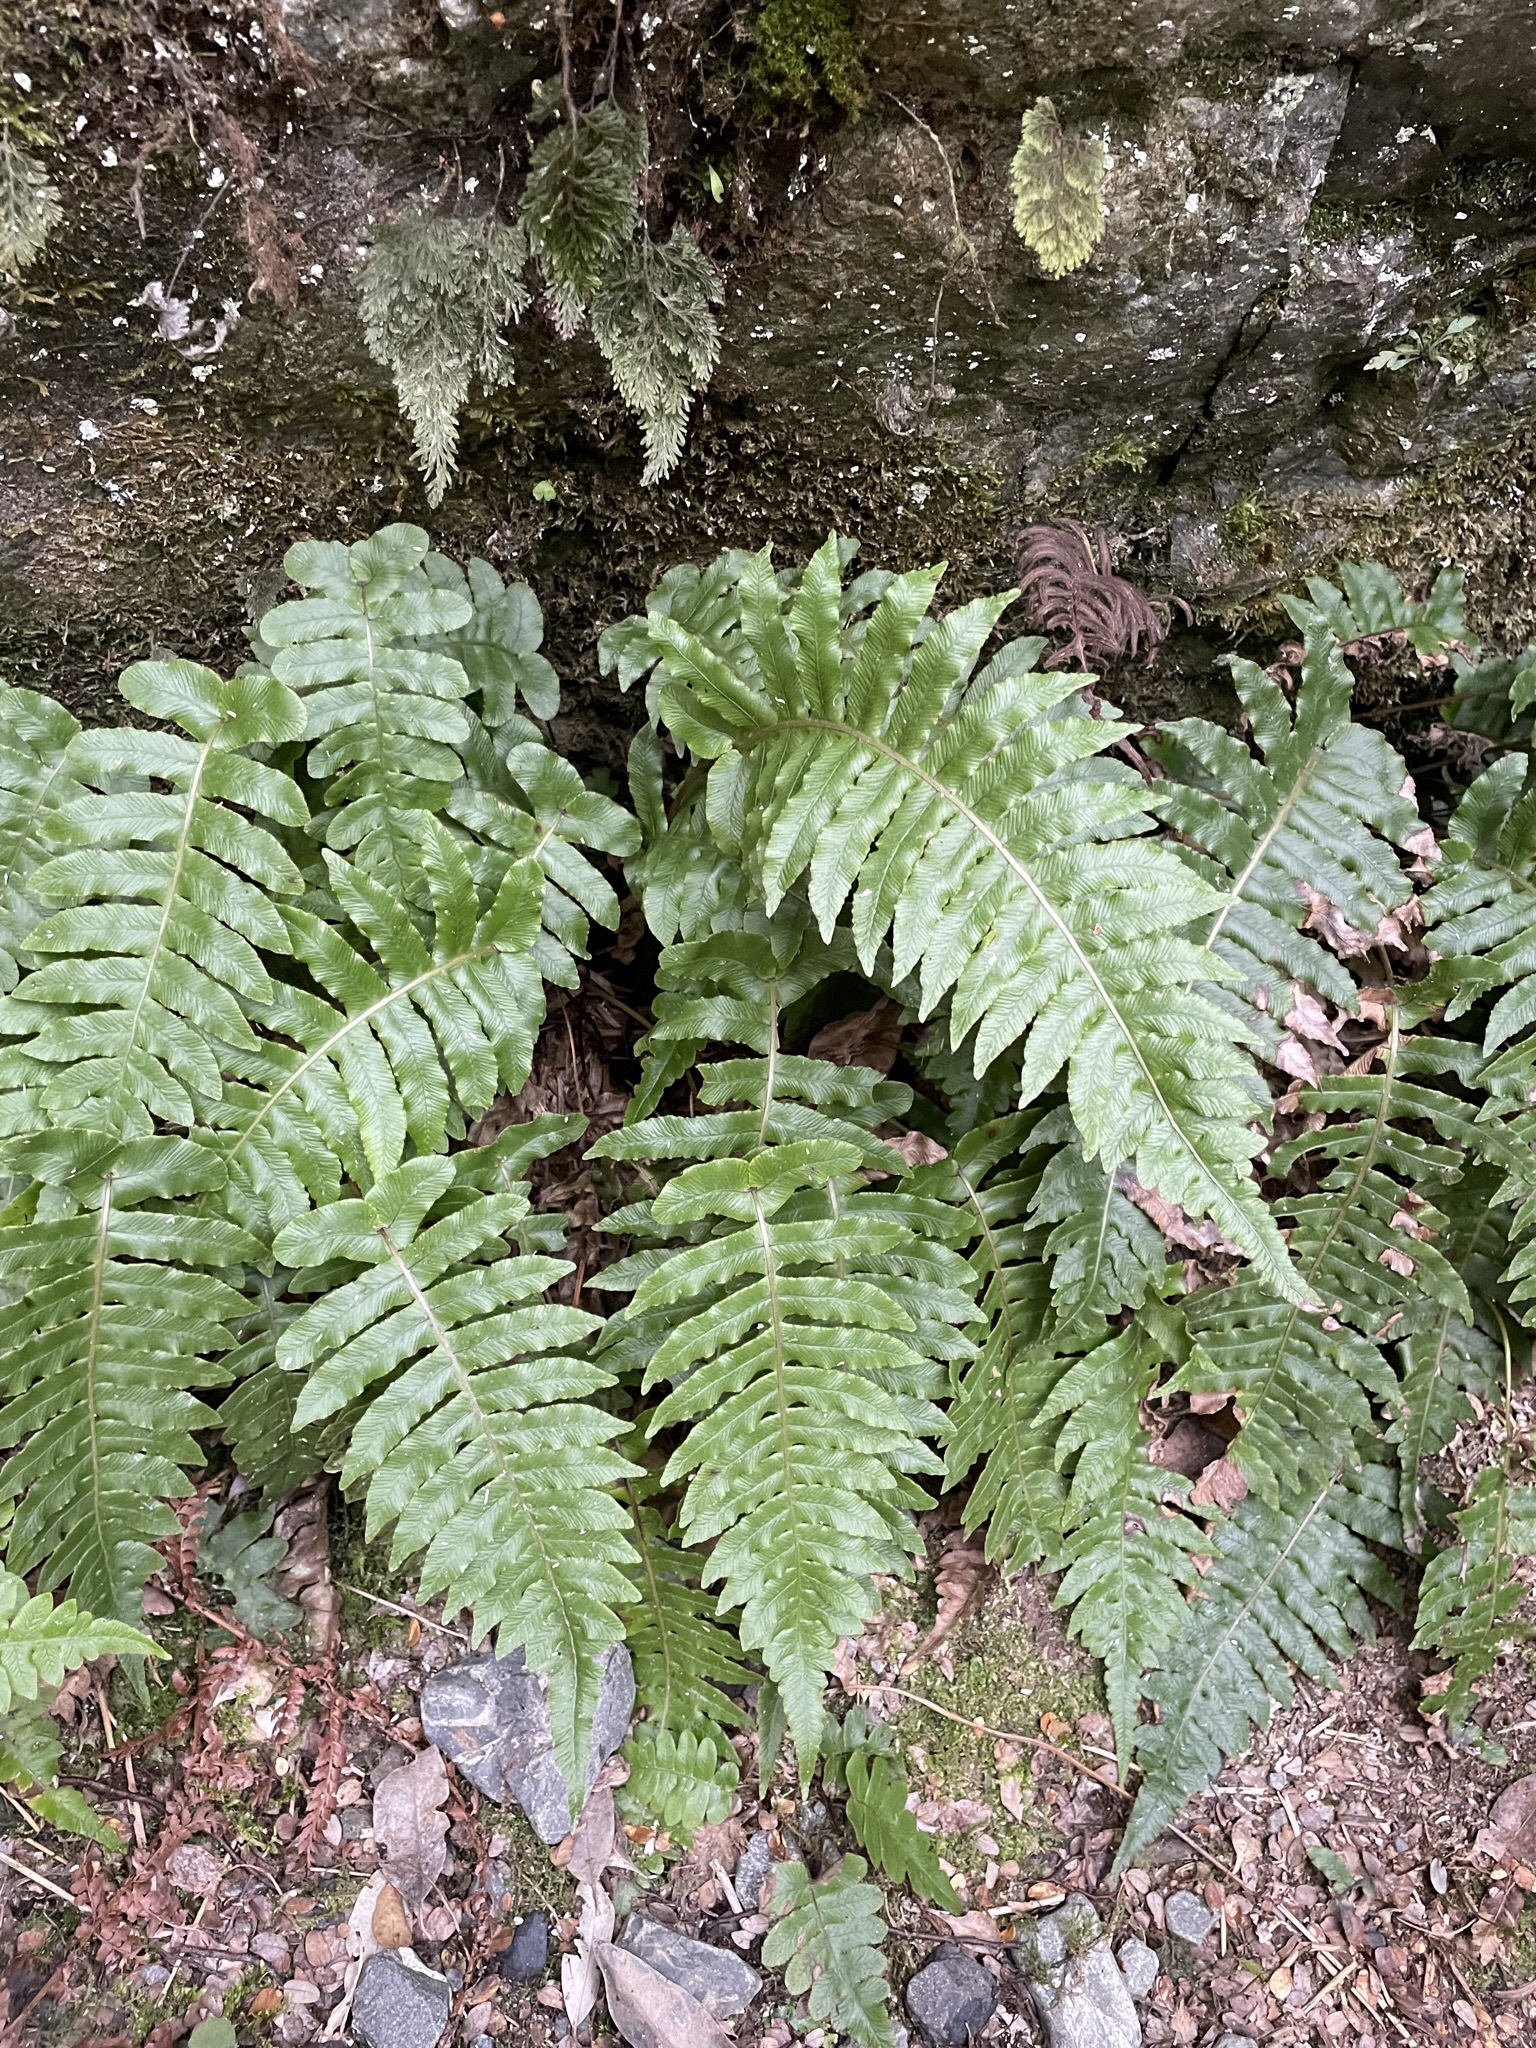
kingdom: Plantae
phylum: Tracheophyta
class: Polypodiopsida
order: Polypodiales
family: Blechnaceae
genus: Cranfillia
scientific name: Cranfillia deltoides
